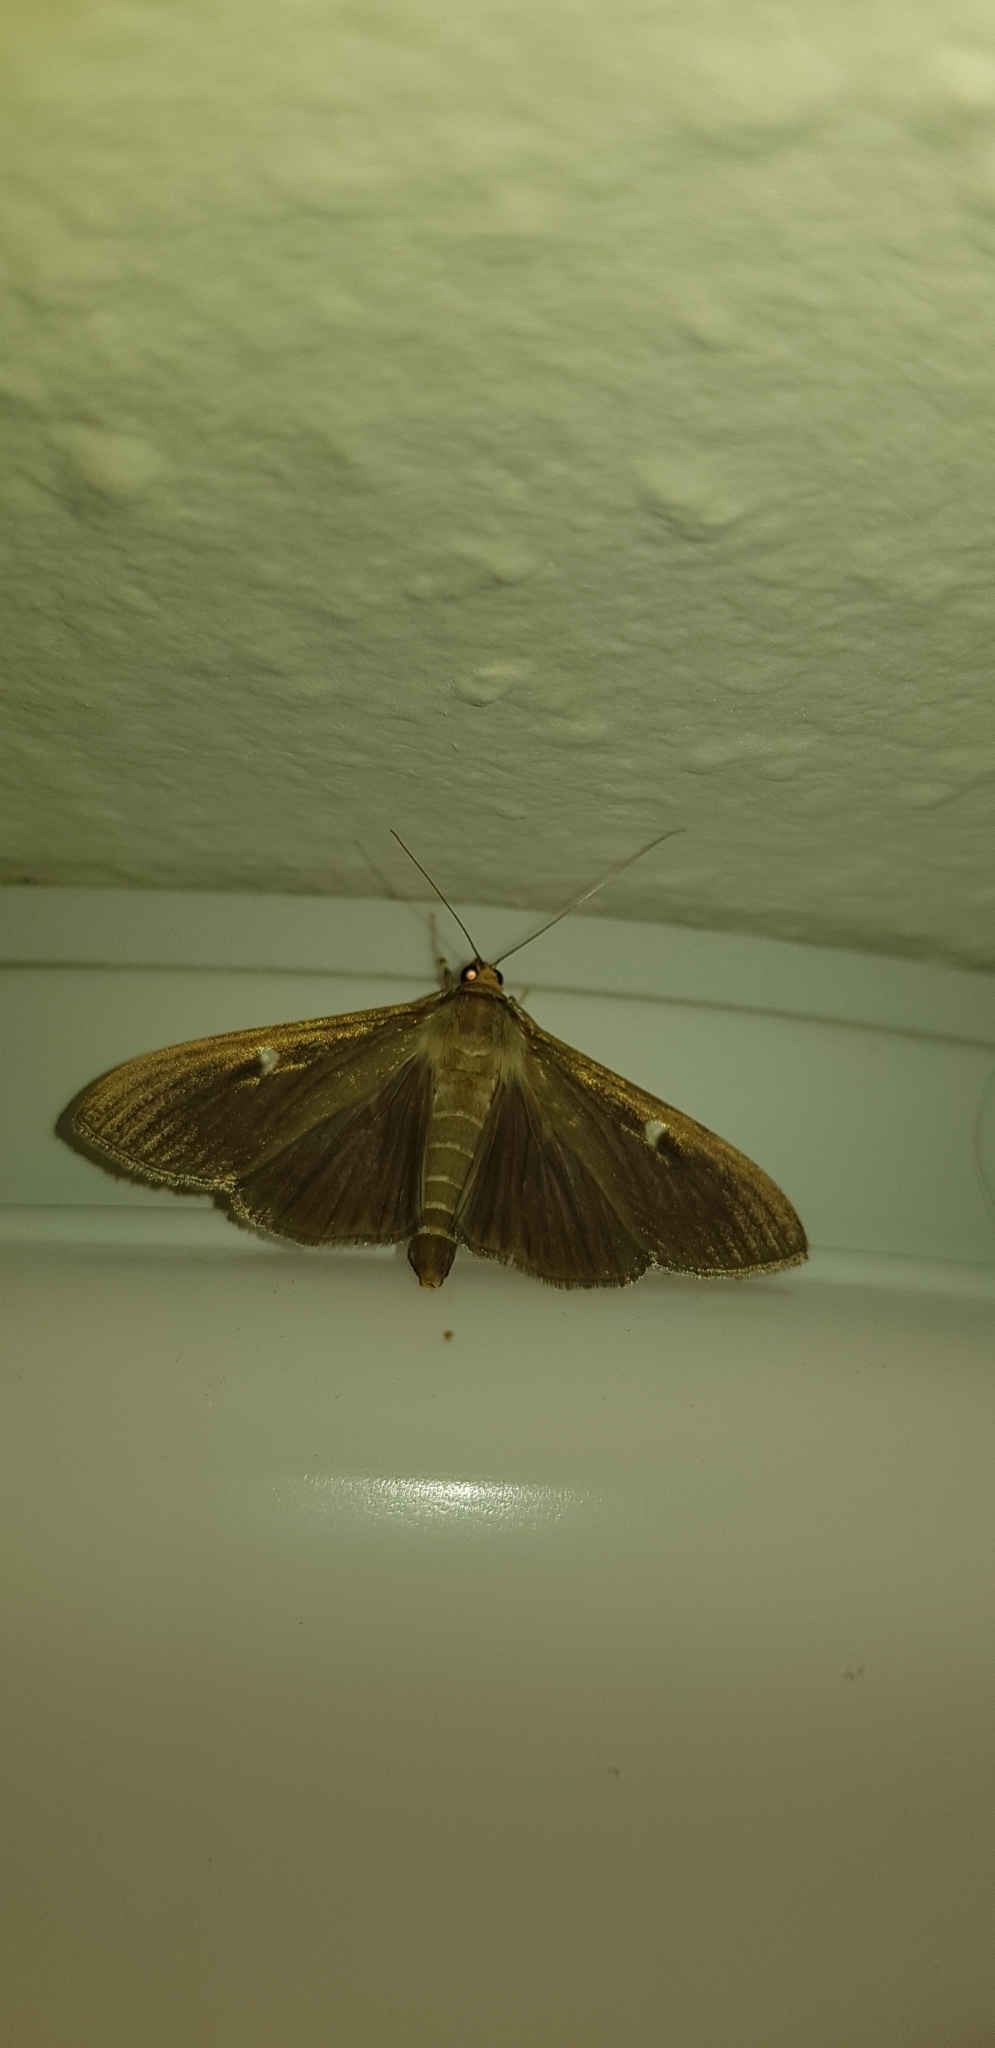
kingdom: Animalia
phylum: Arthropoda
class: Insecta
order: Lepidoptera
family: Crambidae
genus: Cydalima
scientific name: Cydalima perspectalis
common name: Box tree moth
